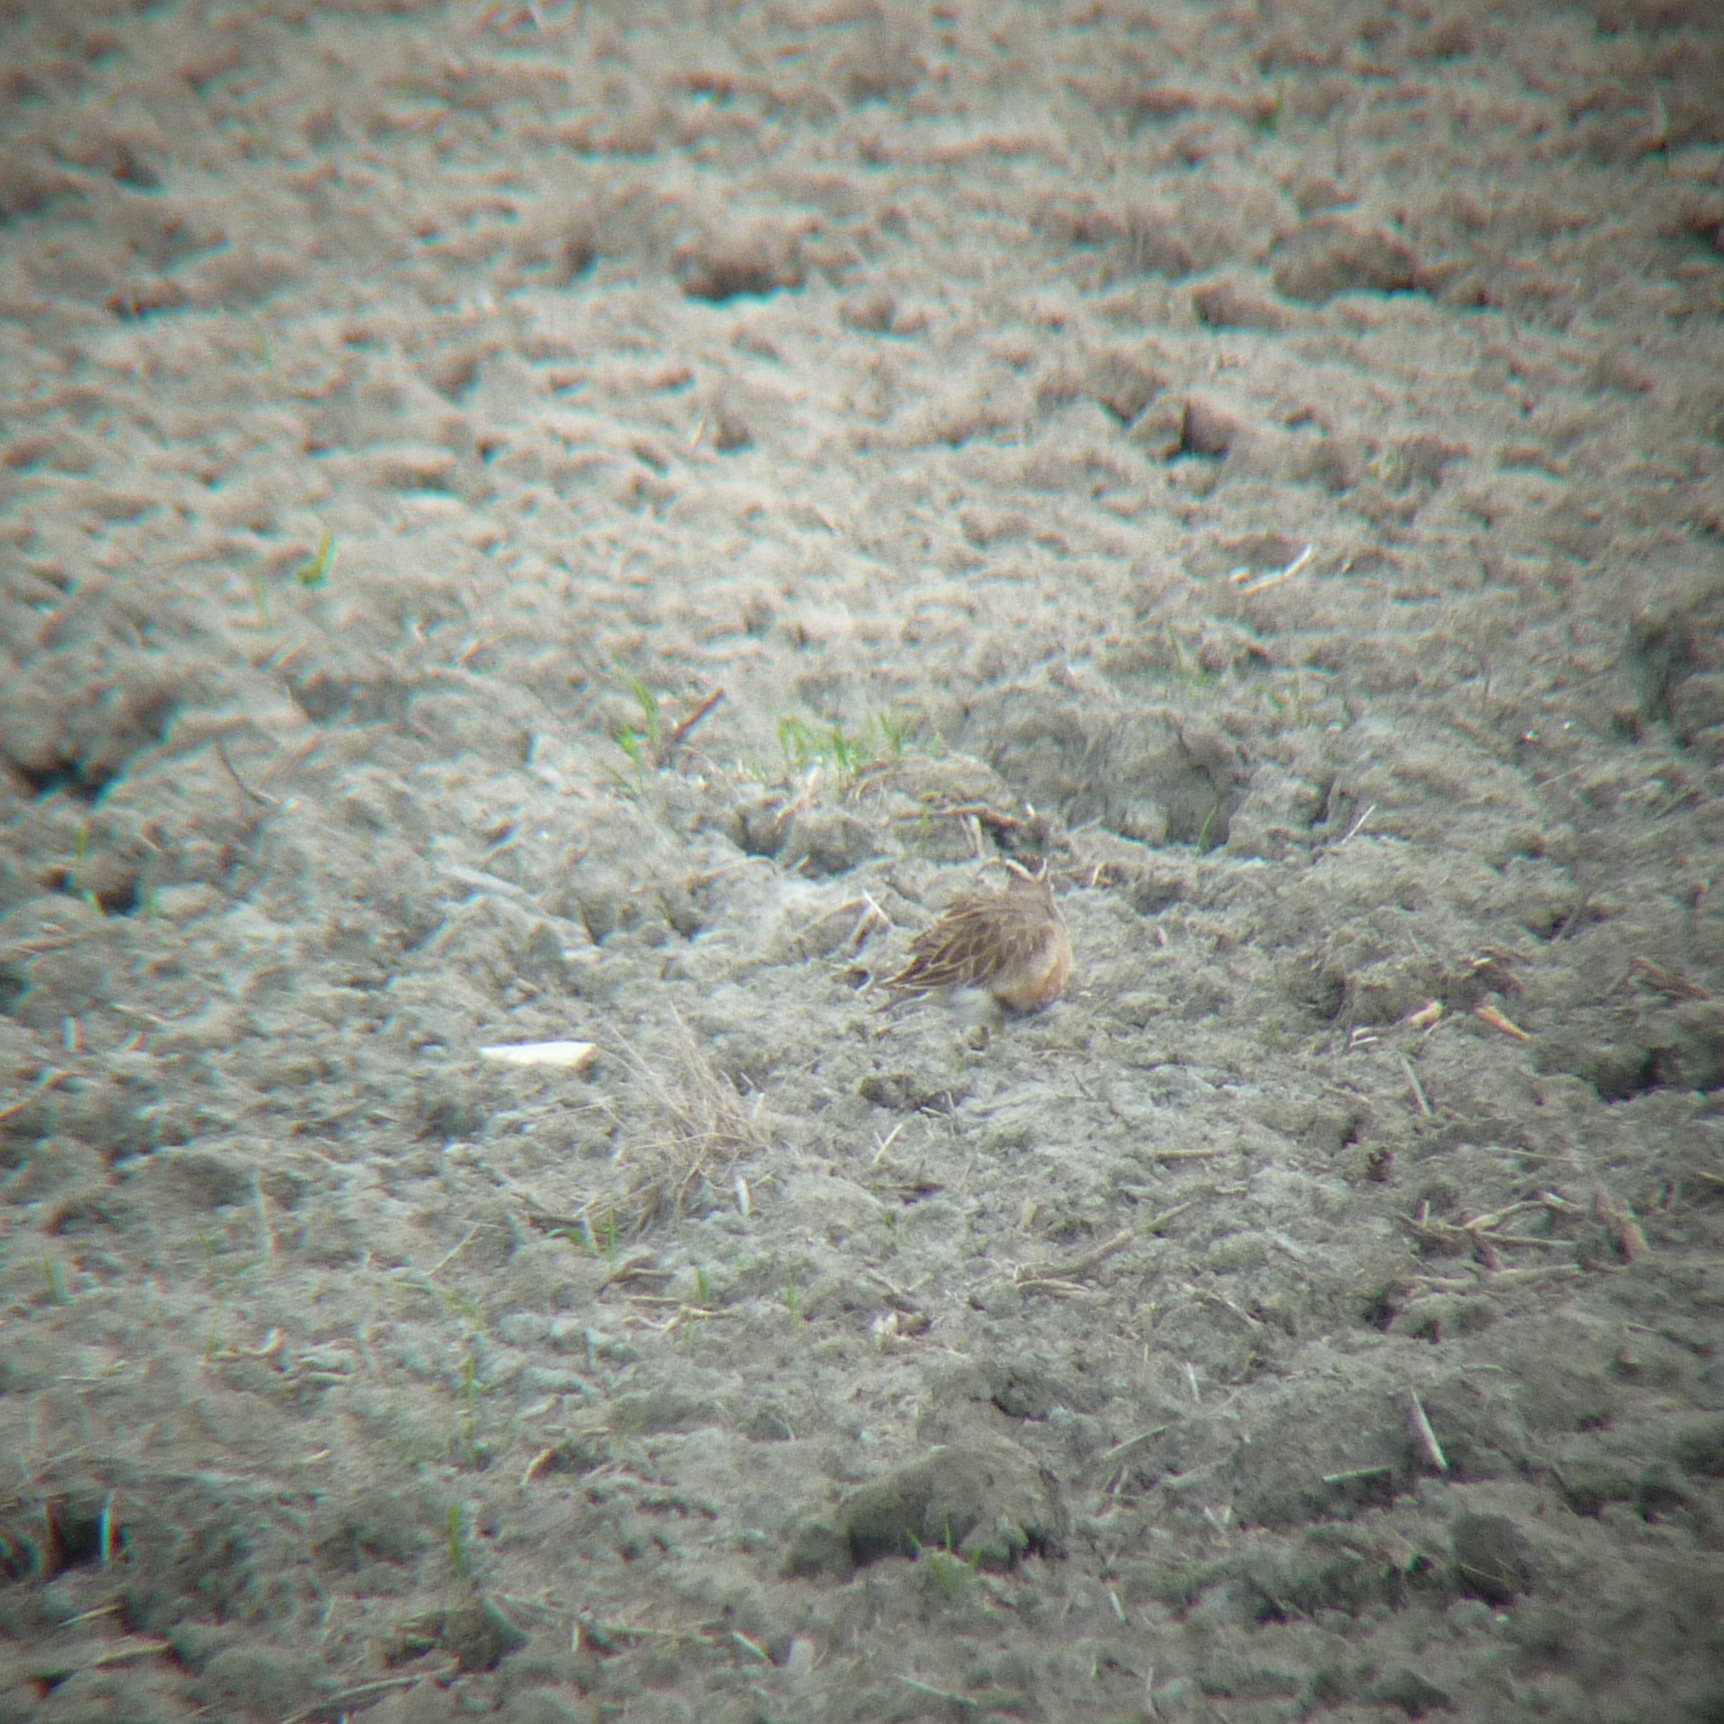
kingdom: Animalia
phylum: Chordata
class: Aves
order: Charadriiformes
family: Charadriidae
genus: Charadrius
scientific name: Charadrius morinellus
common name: Eurasian dotterel
